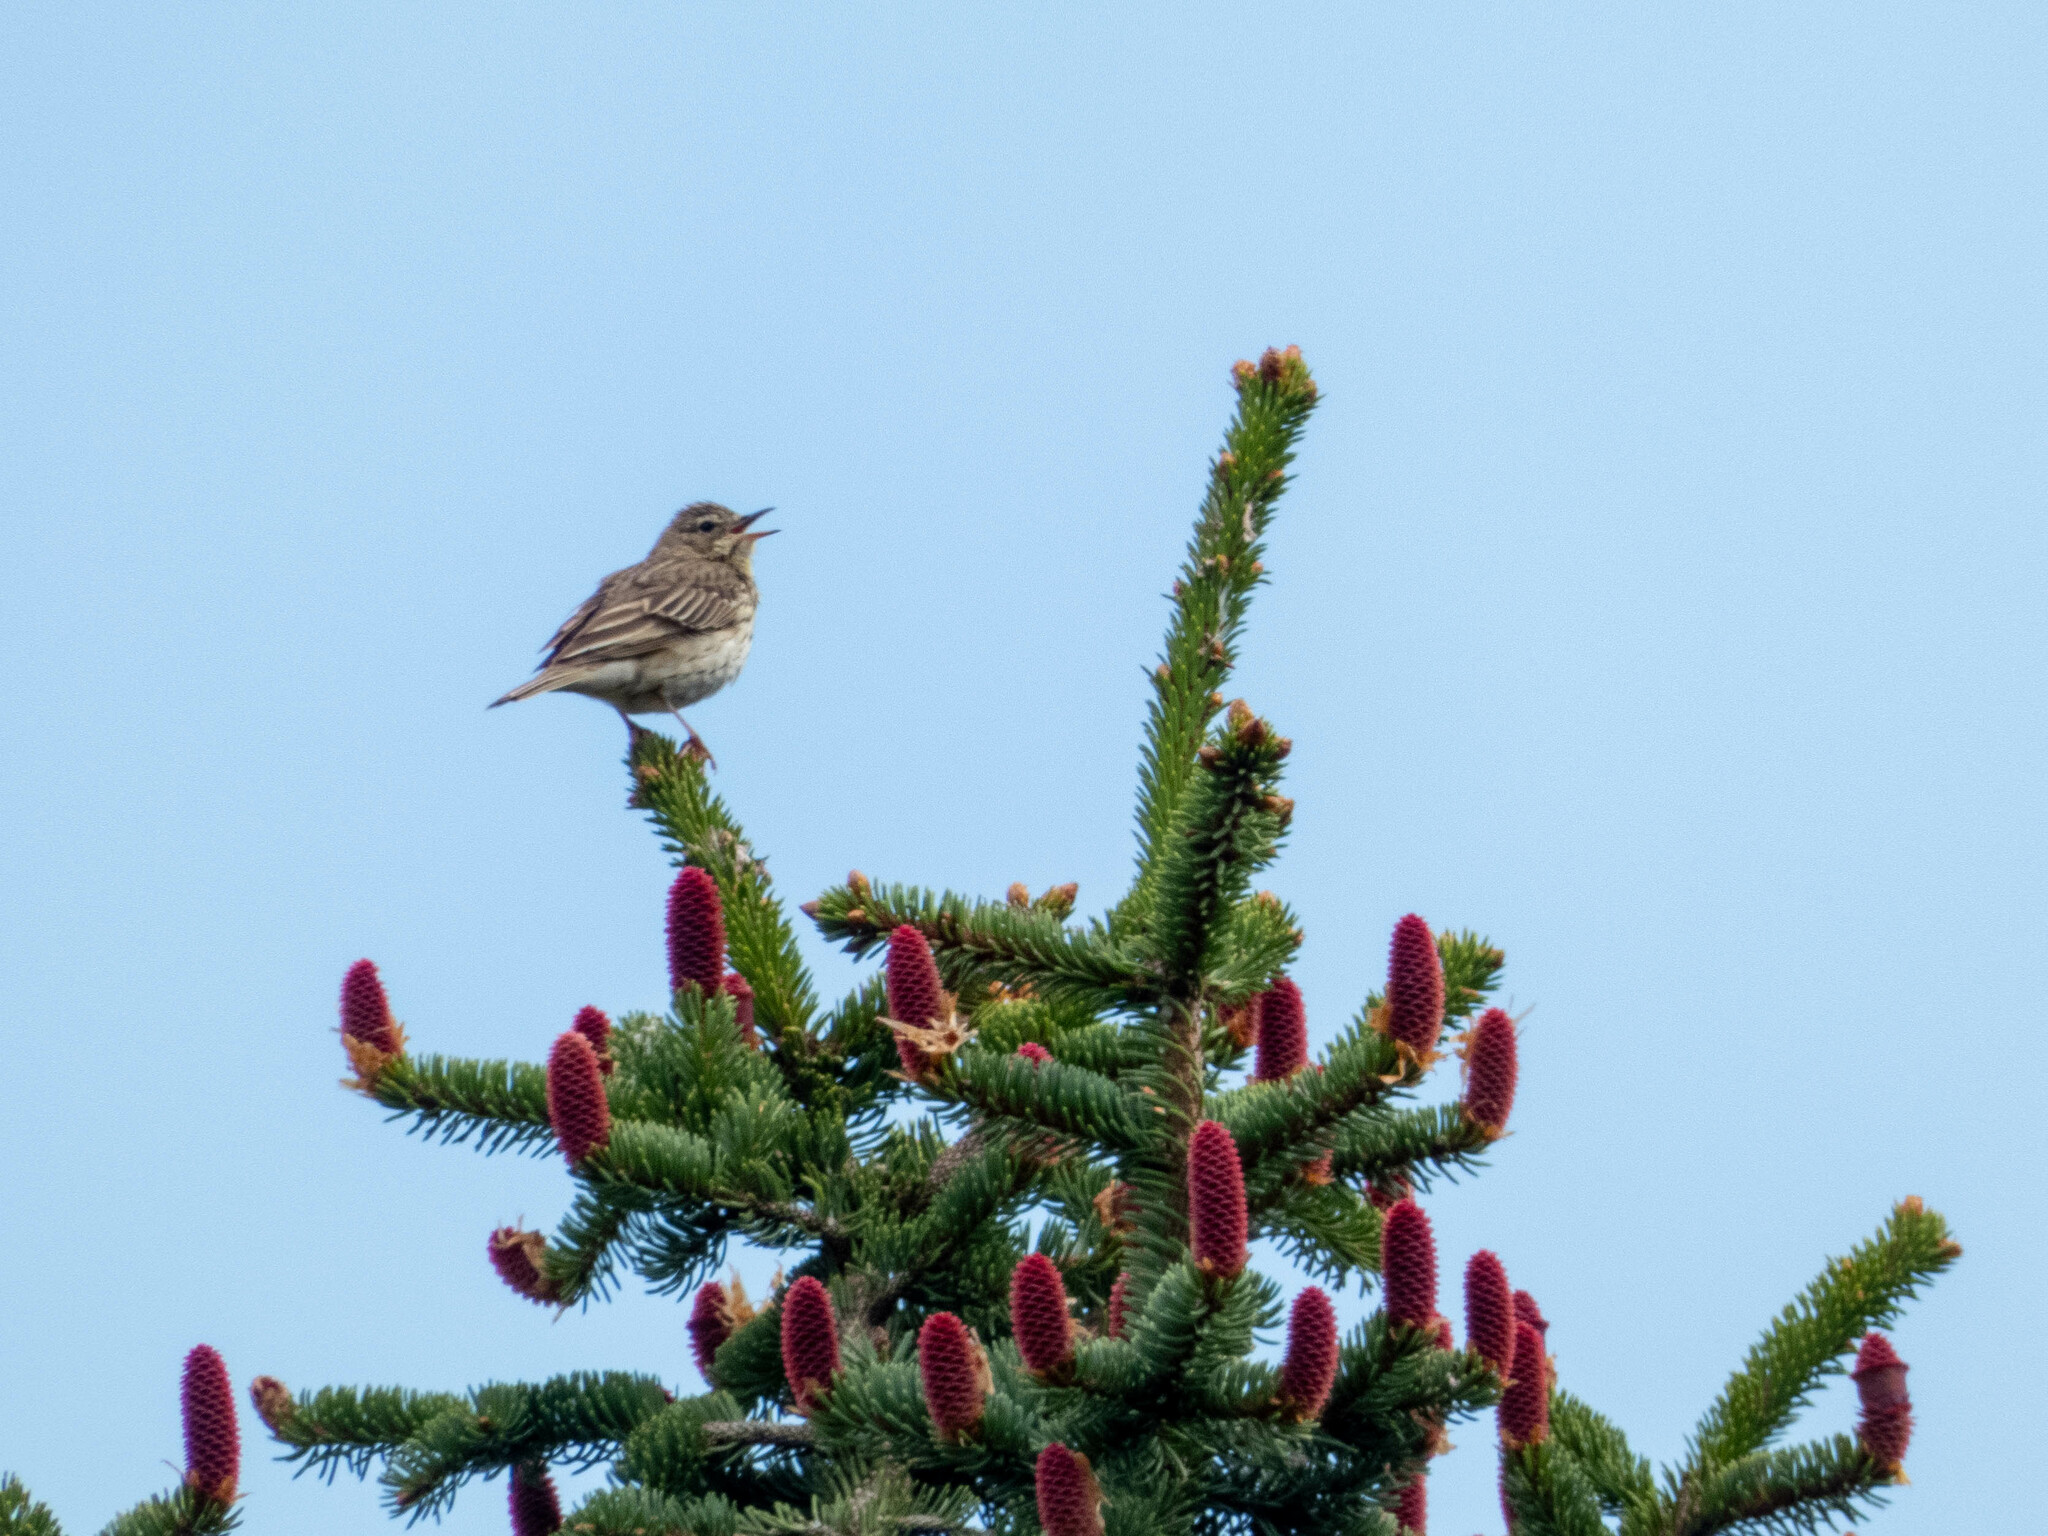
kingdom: Animalia
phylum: Chordata
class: Aves
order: Passeriformes
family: Motacillidae
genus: Anthus
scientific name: Anthus trivialis
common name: Tree pipit
